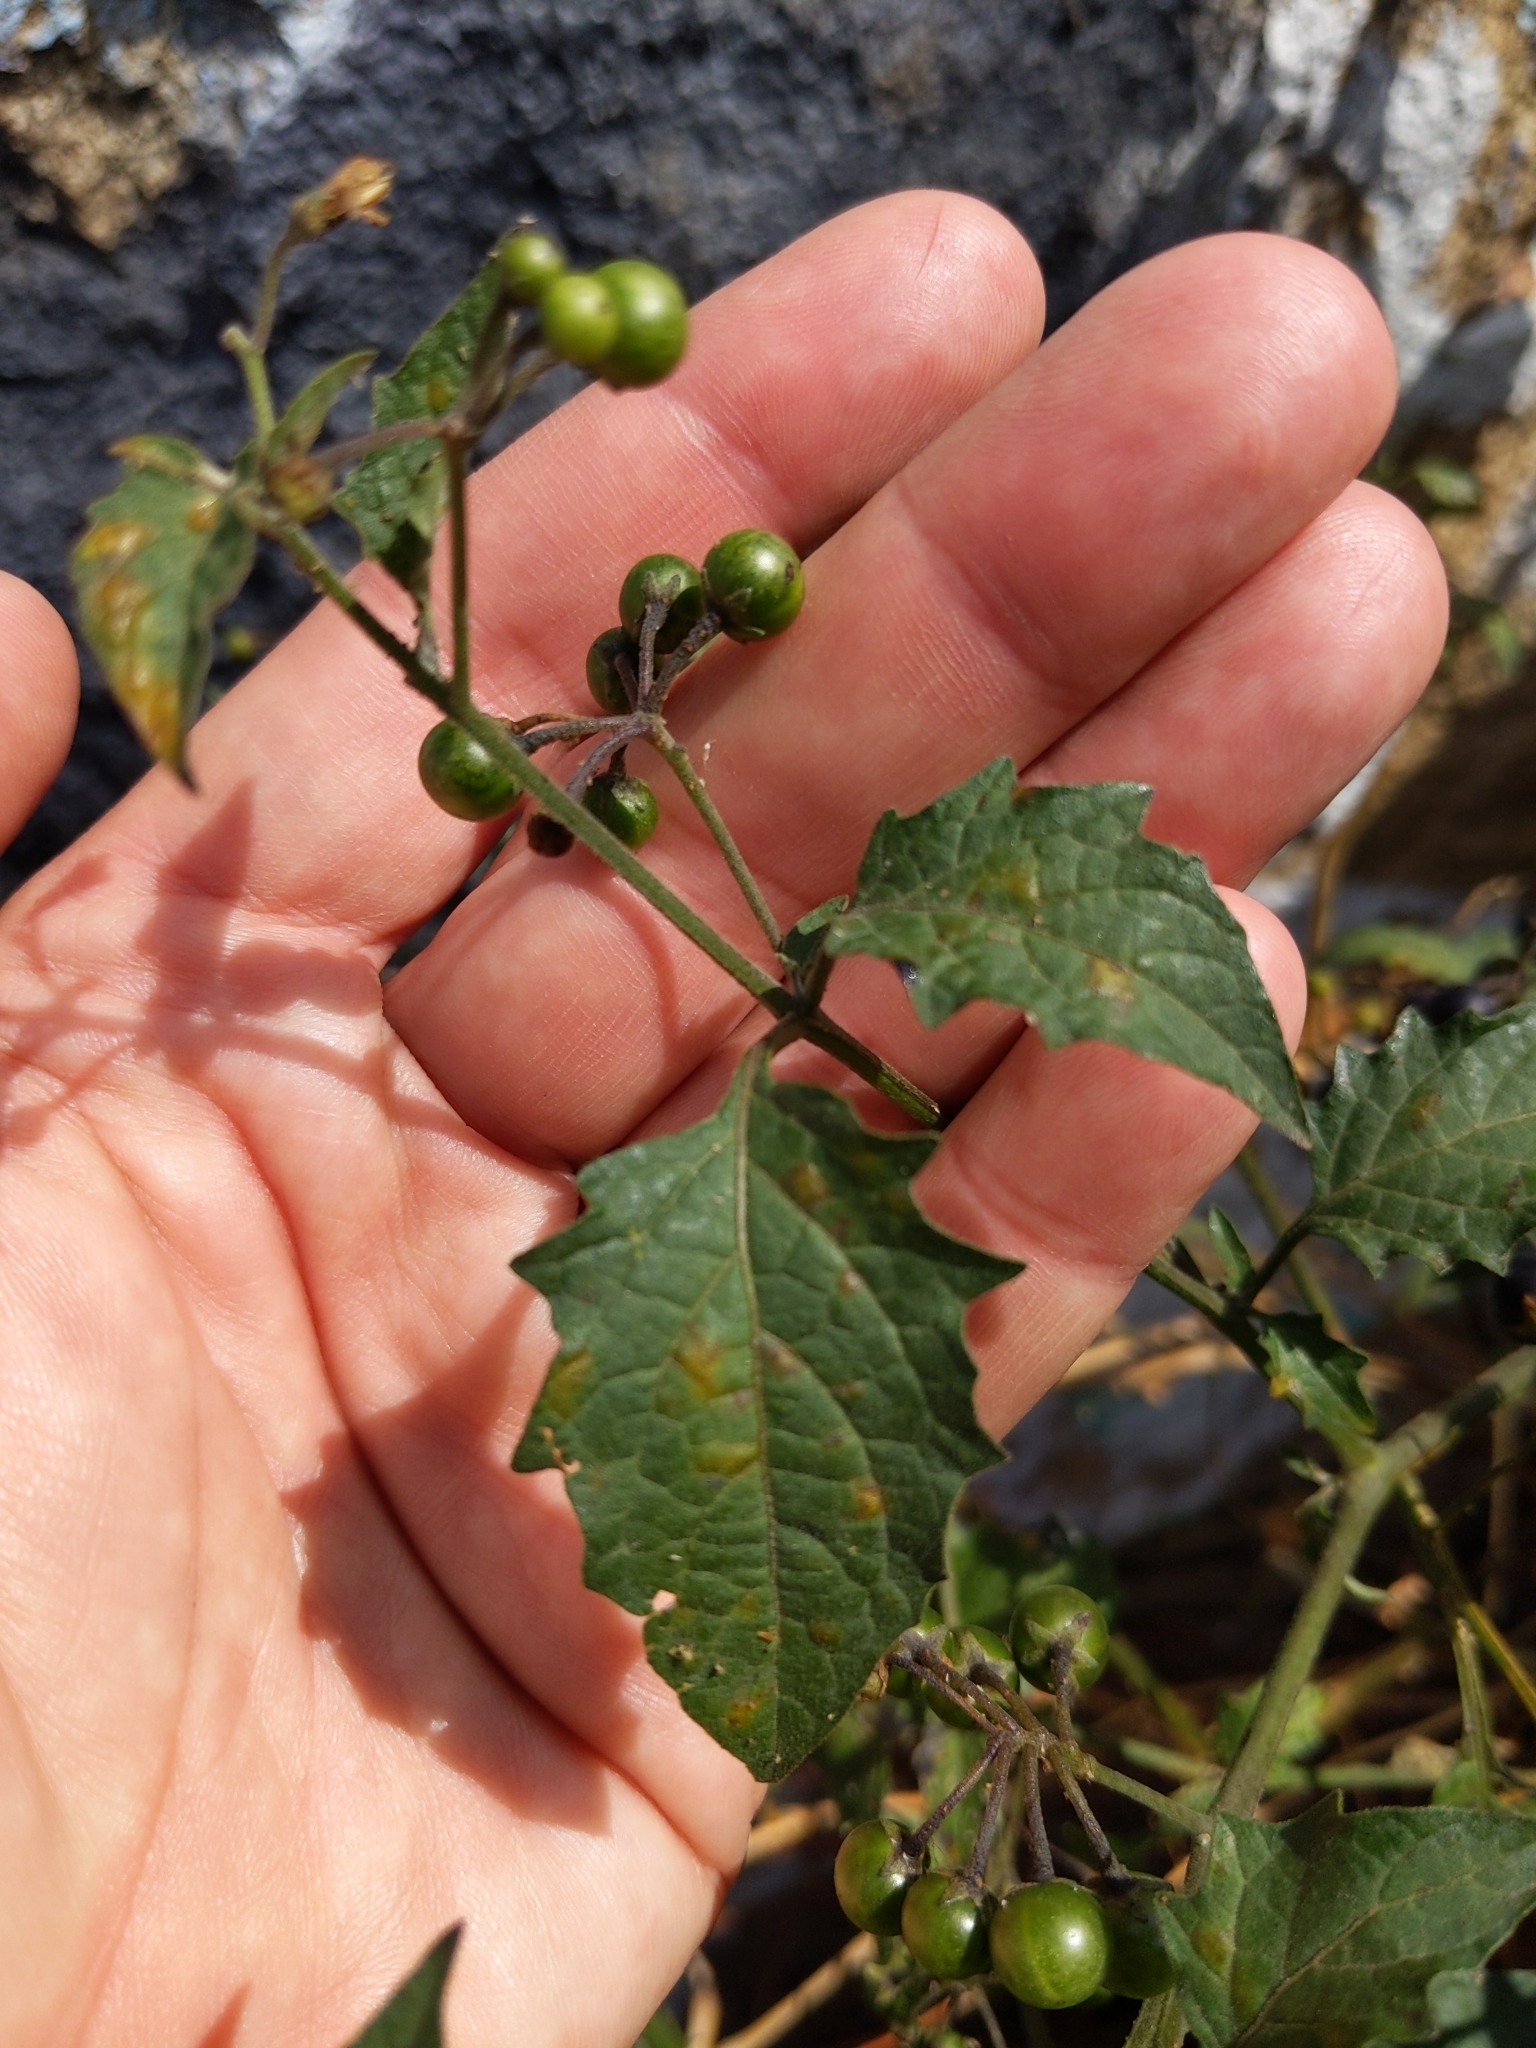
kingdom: Plantae
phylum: Tracheophyta
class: Magnoliopsida
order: Solanales
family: Solanaceae
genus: Solanum
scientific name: Solanum douglasii
